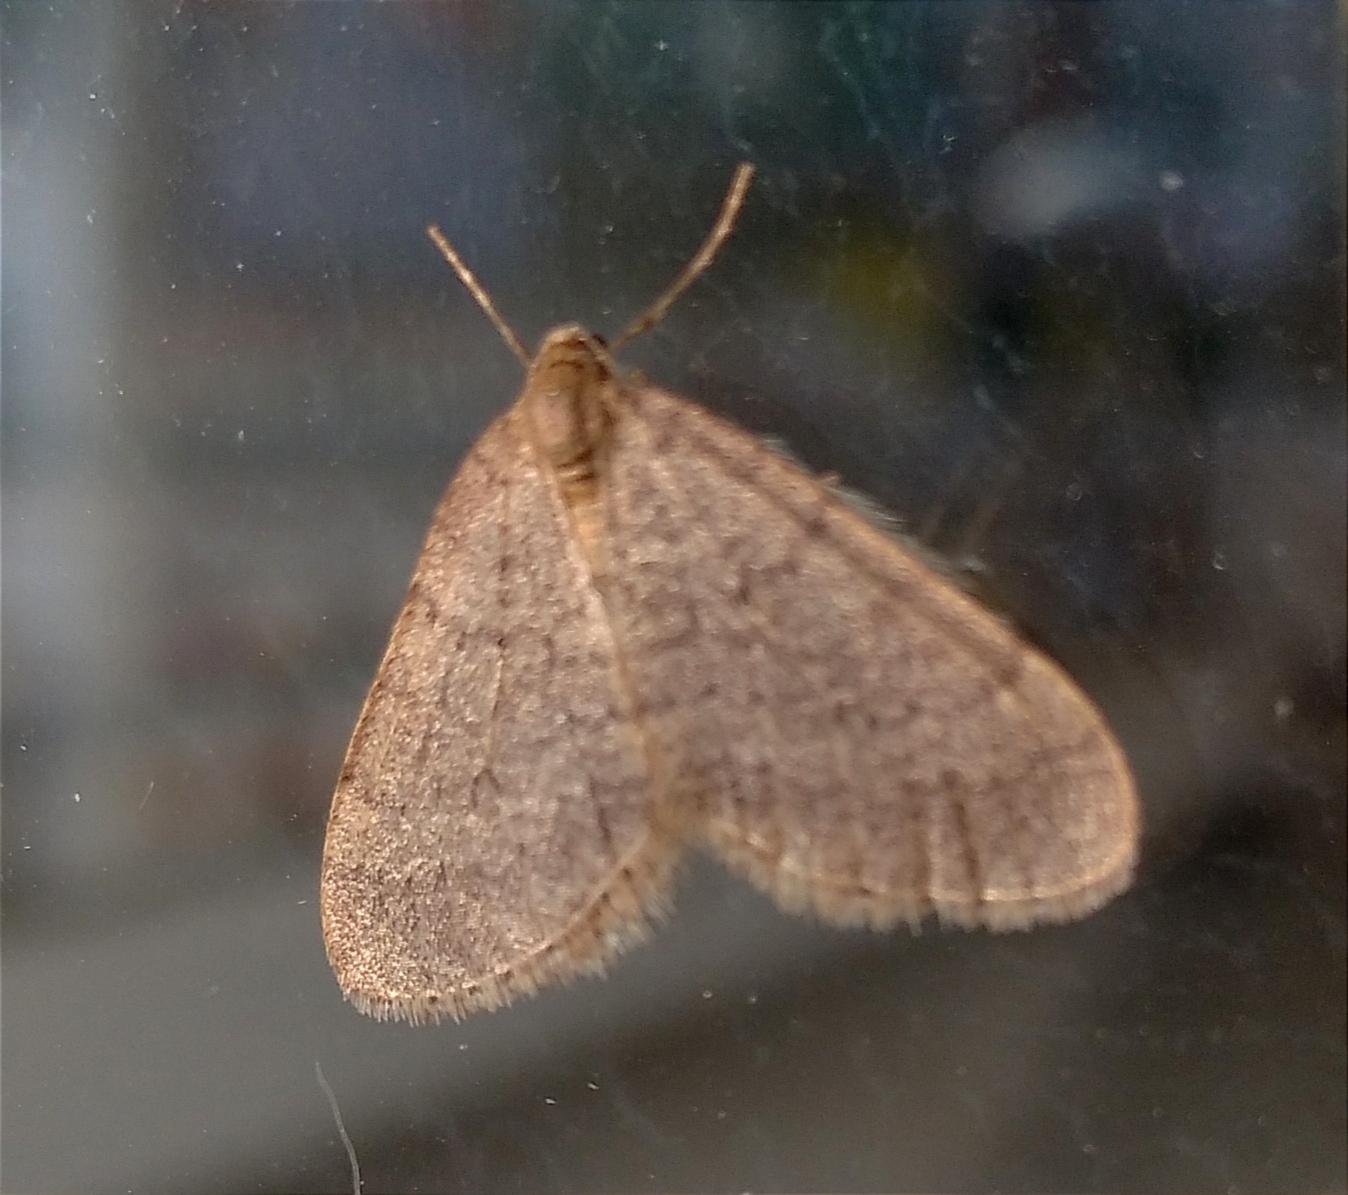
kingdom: Animalia
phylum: Arthropoda
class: Insecta
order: Lepidoptera
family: Geometridae
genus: Operophtera
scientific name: Operophtera brumata
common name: Winter moth
